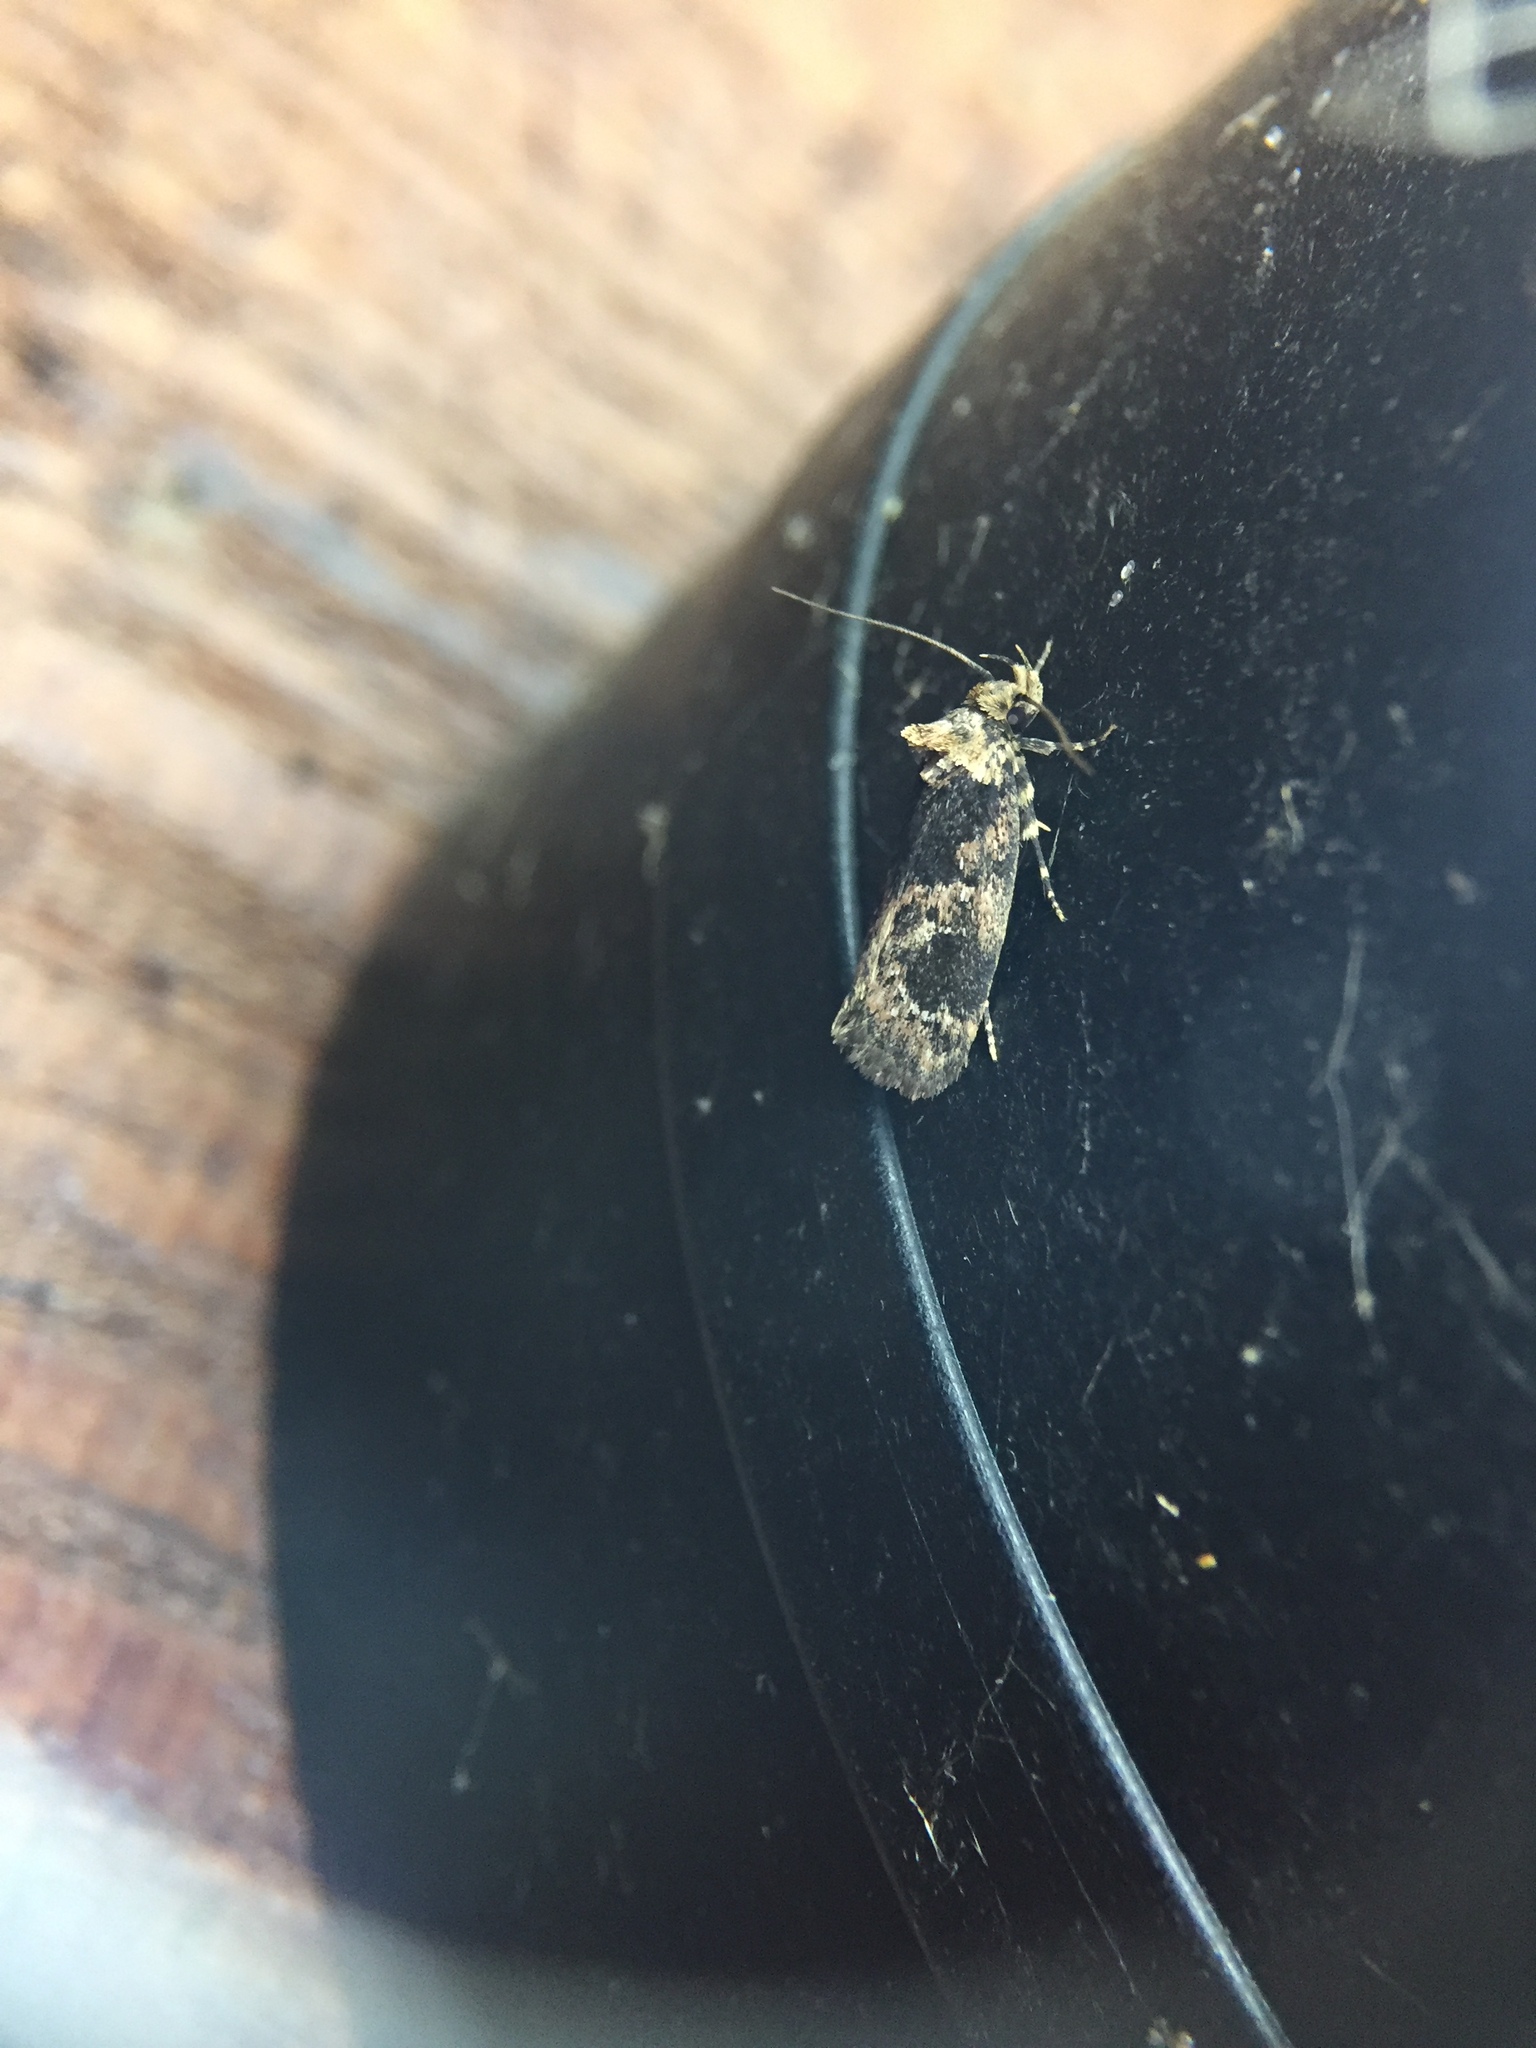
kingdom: Animalia
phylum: Arthropoda
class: Insecta
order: Lepidoptera
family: Oecophoridae
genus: Barea
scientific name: Barea consignatella
